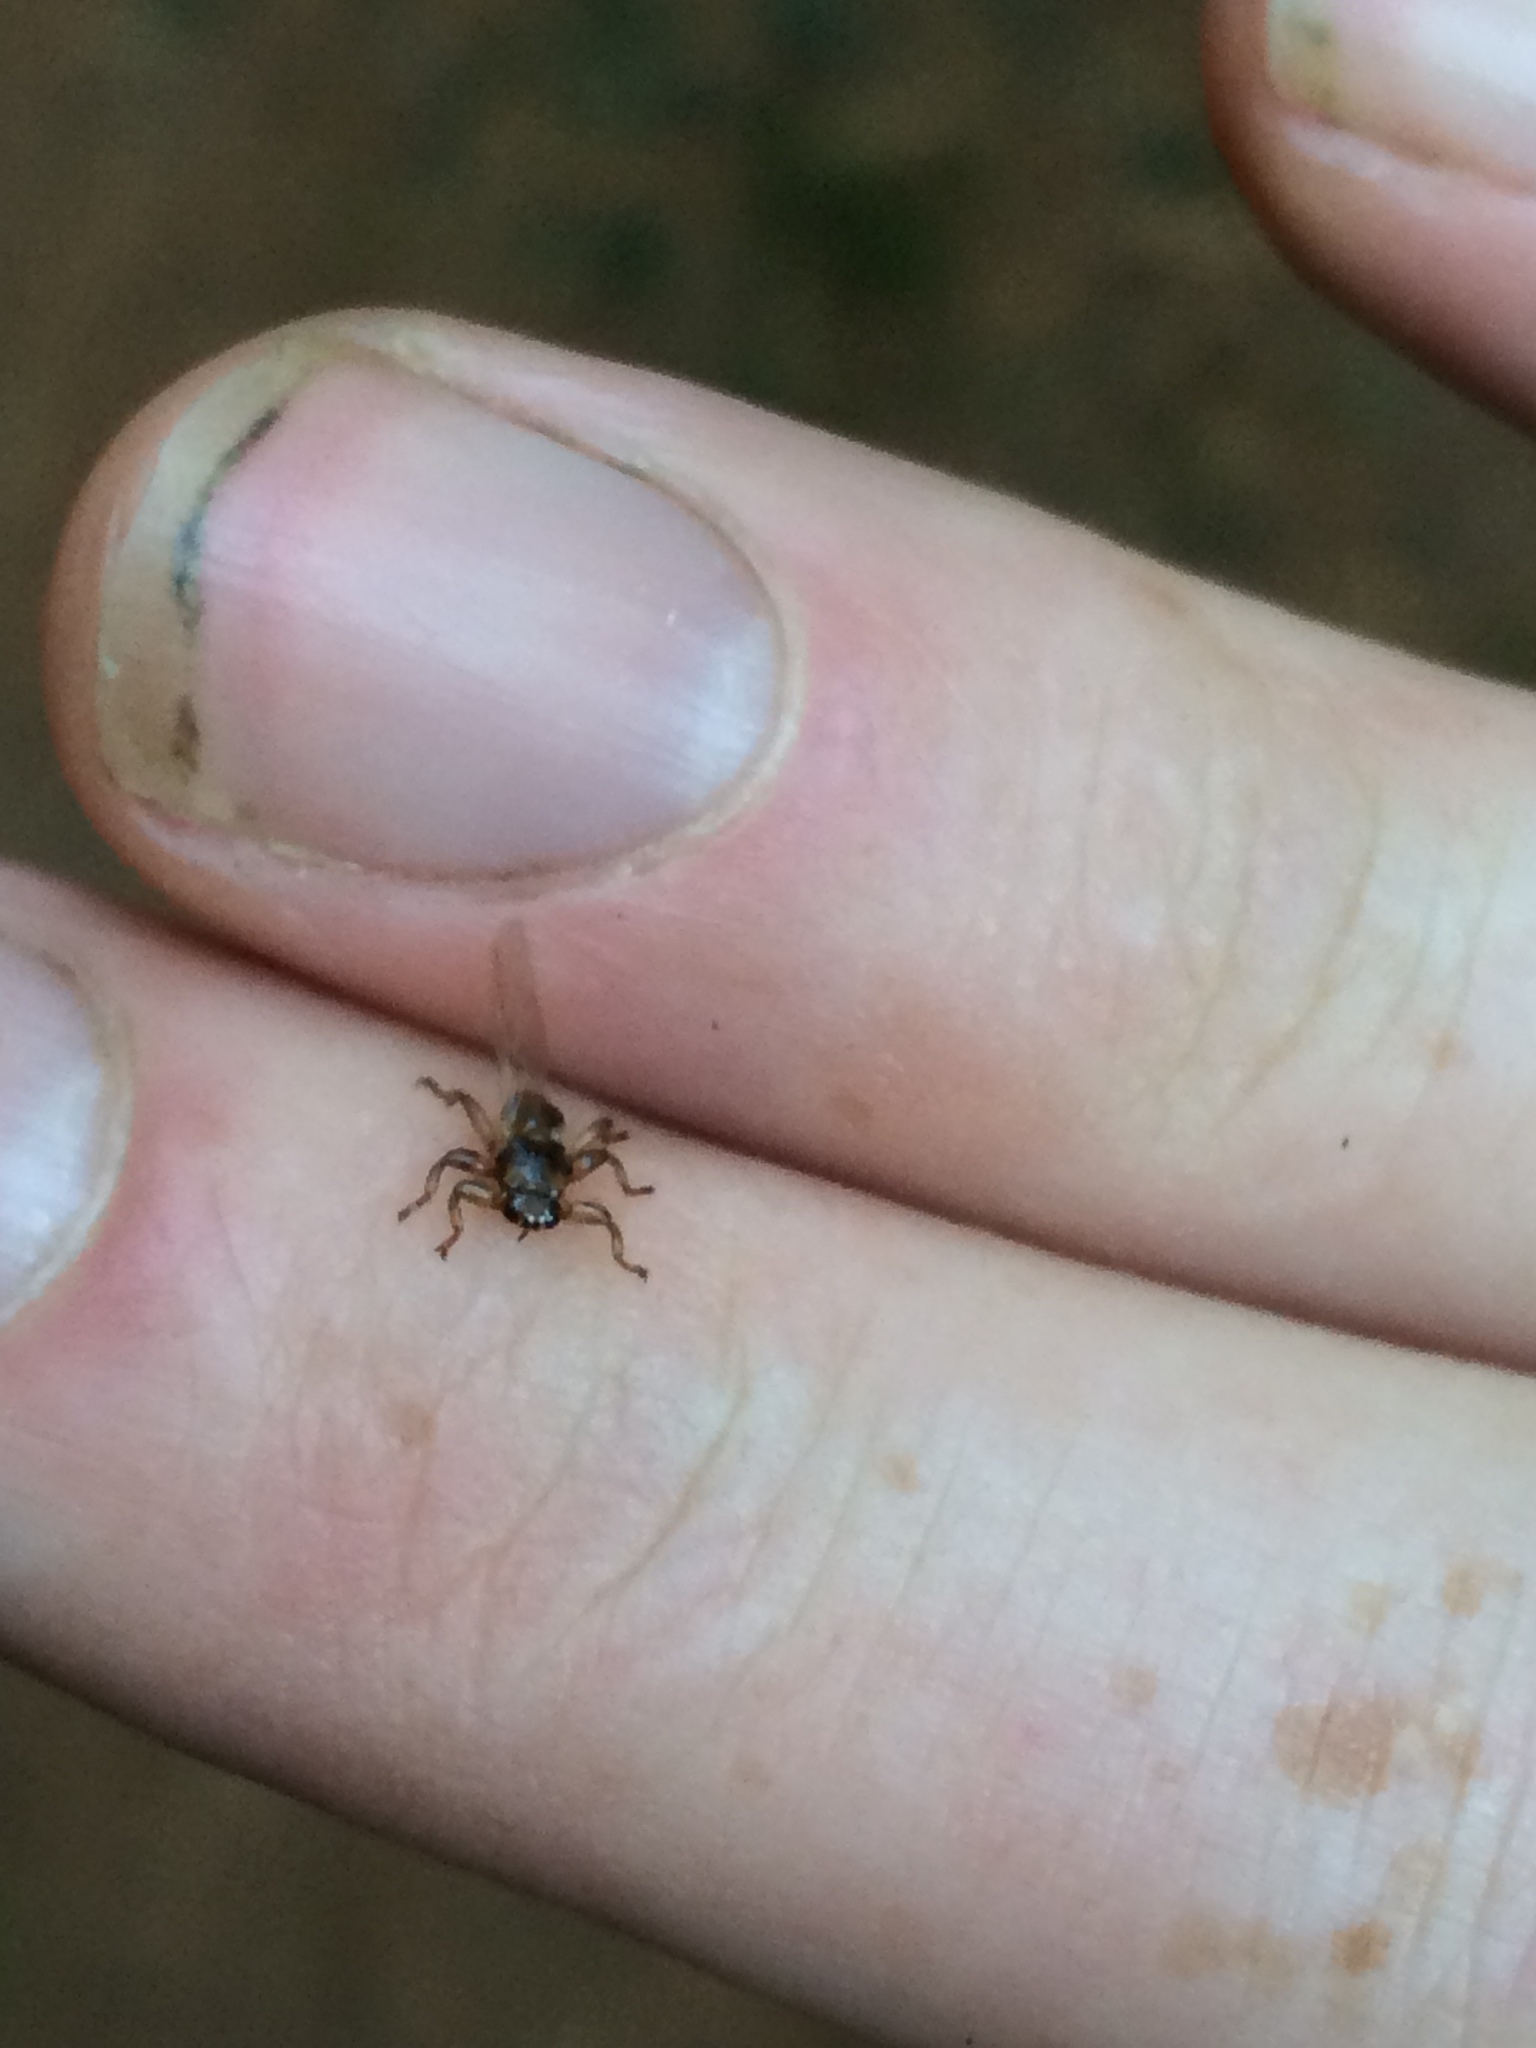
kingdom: Animalia
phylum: Arthropoda
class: Insecta
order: Diptera
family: Hippoboscidae
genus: Lipoptena
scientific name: Lipoptena cervi
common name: Deer ked
